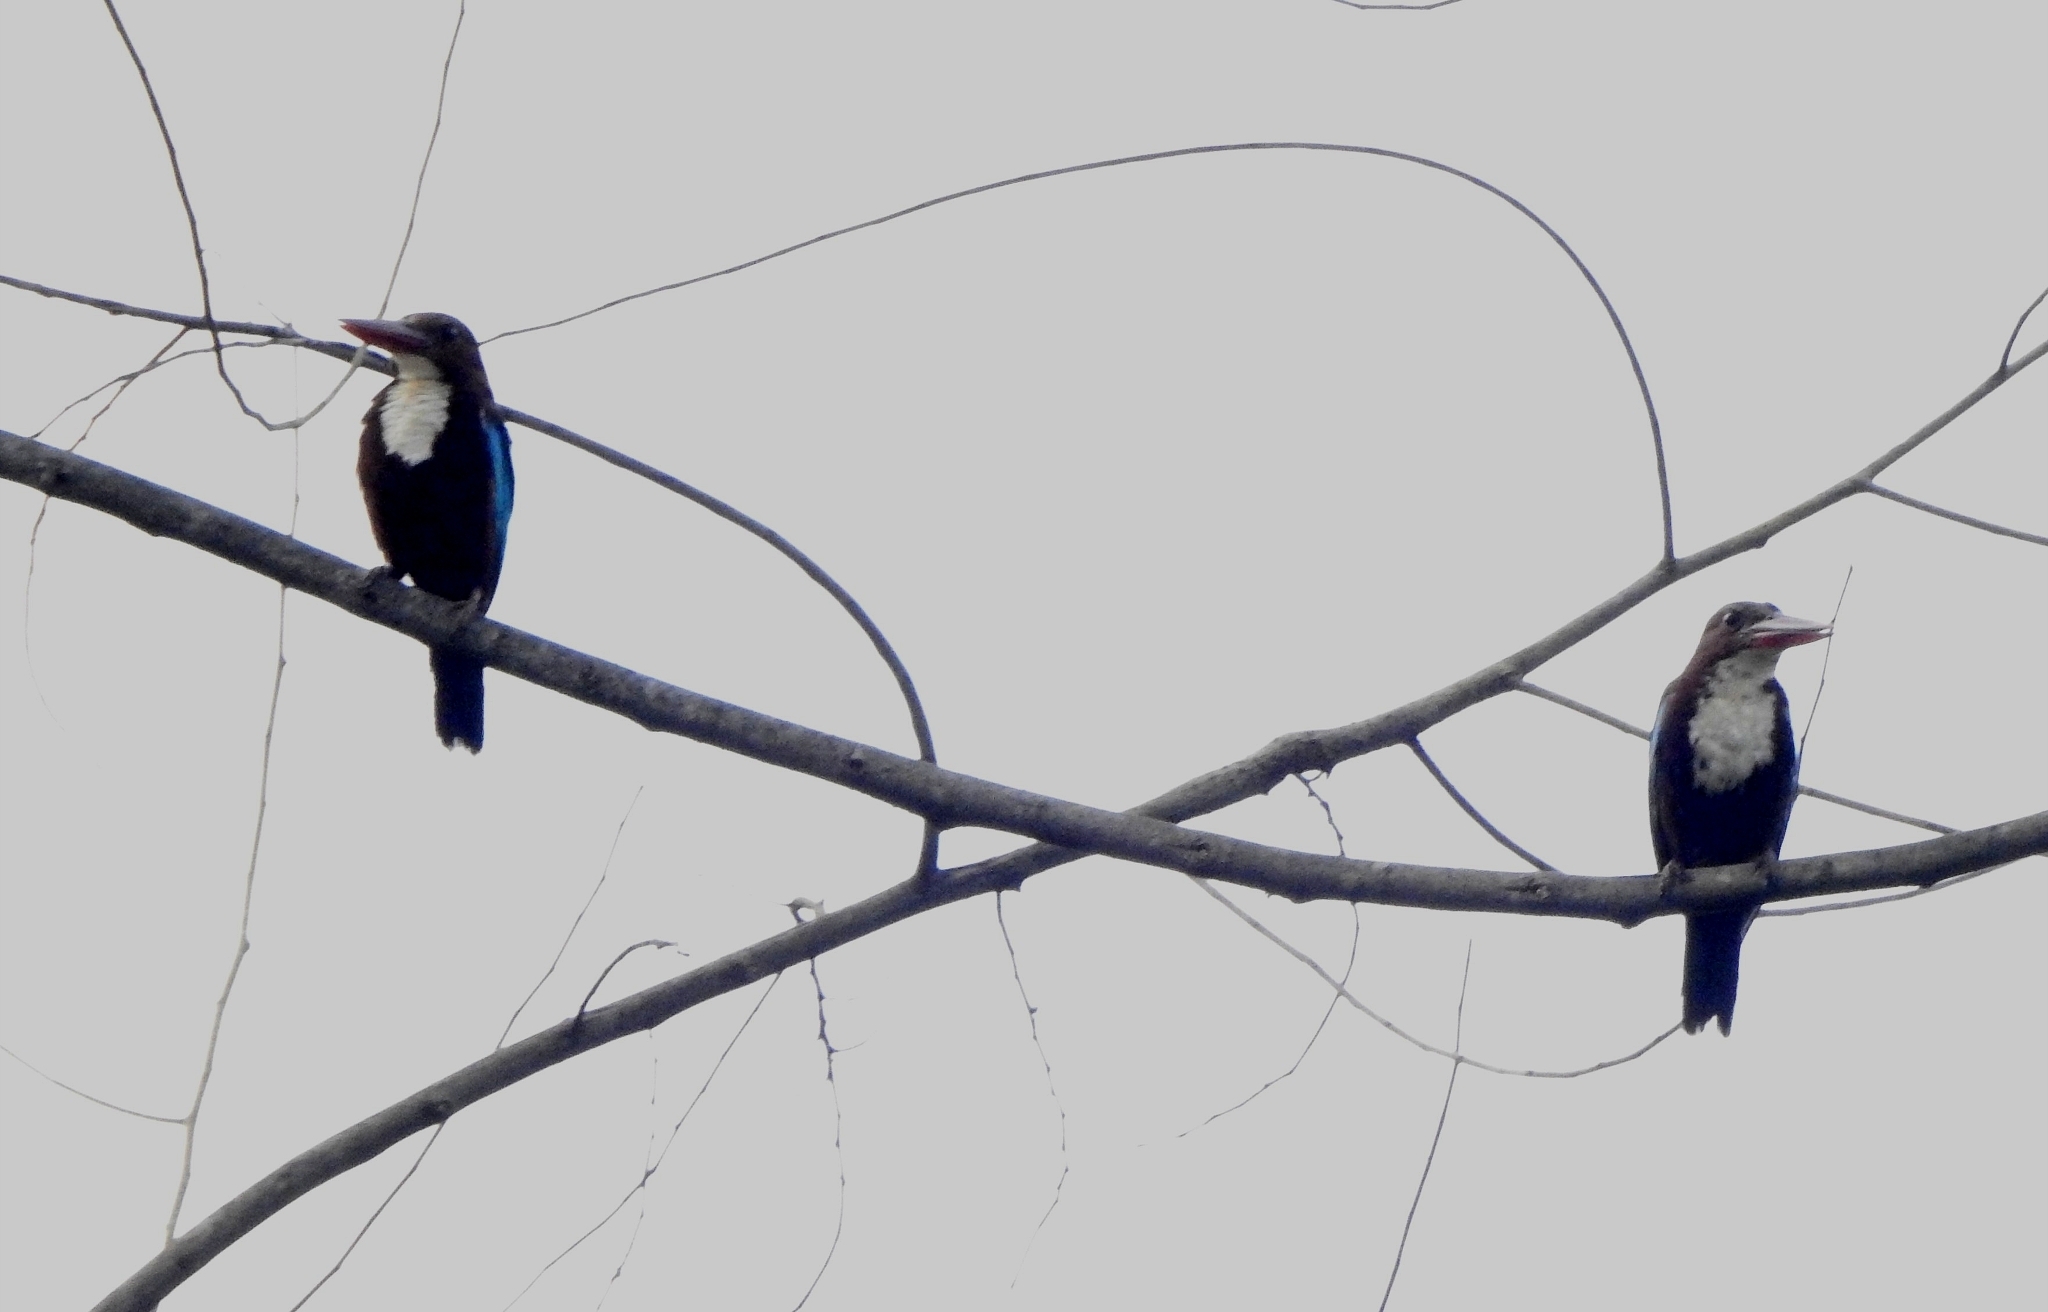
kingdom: Animalia
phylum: Chordata
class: Aves
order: Coraciiformes
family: Alcedinidae
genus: Halcyon
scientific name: Halcyon smyrnensis
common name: White-throated kingfisher
